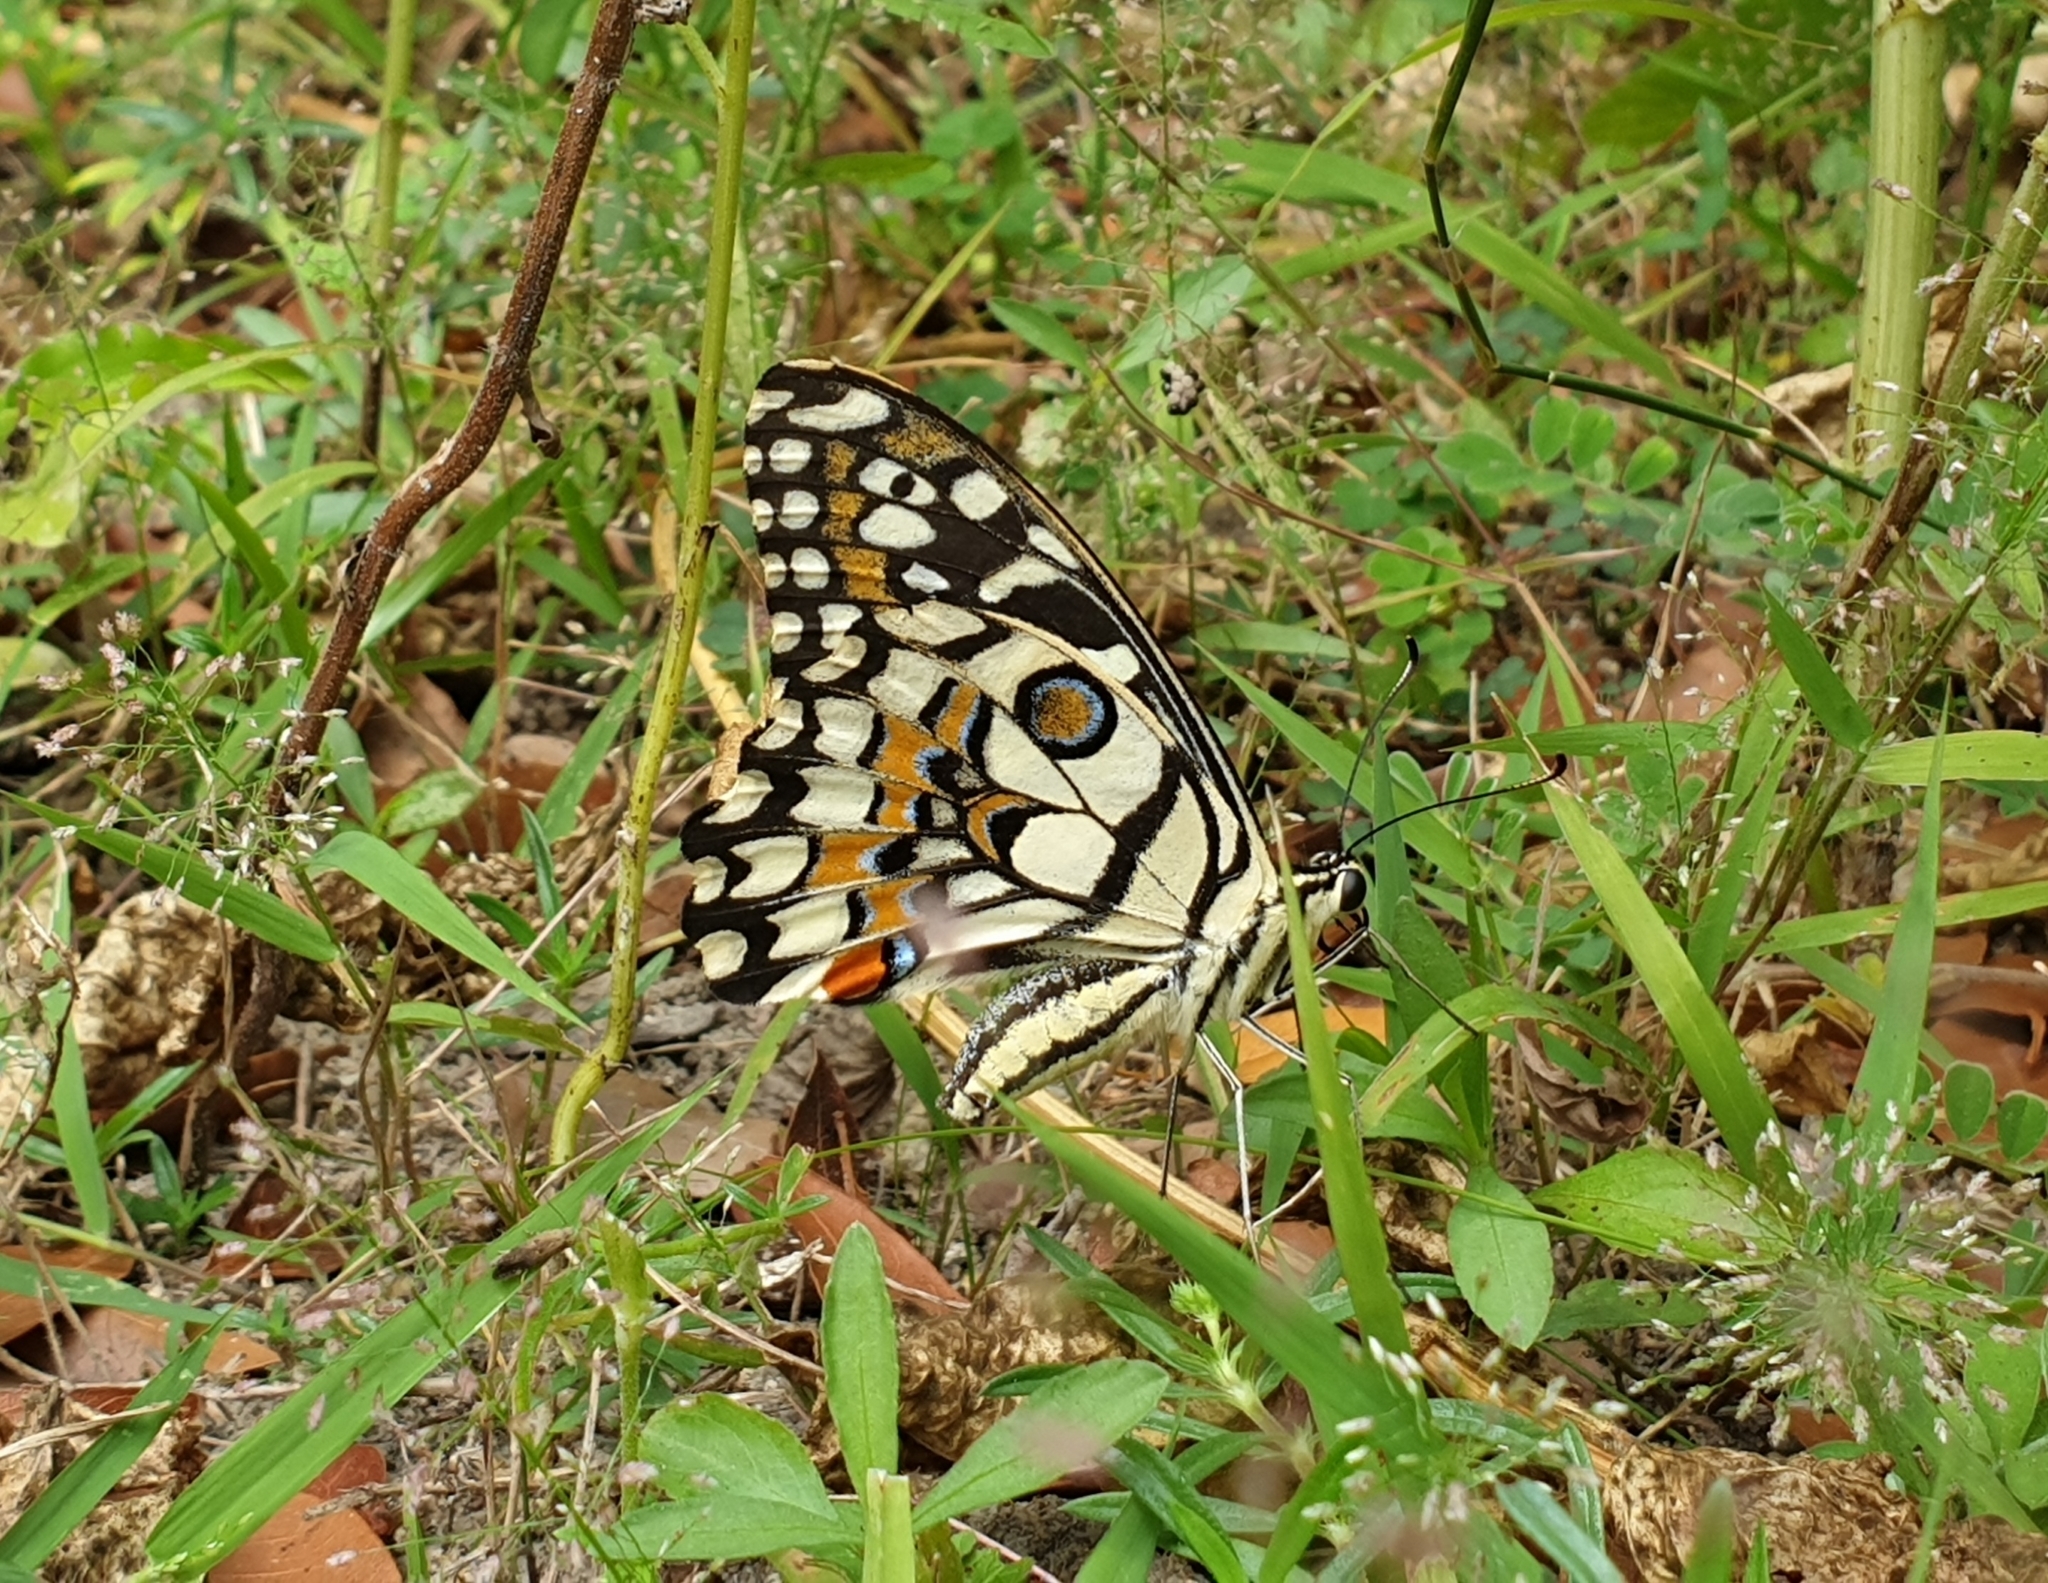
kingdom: Animalia
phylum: Arthropoda
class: Insecta
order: Lepidoptera
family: Papilionidae
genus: Papilio
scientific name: Papilio demoleus
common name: Lime butterfly
